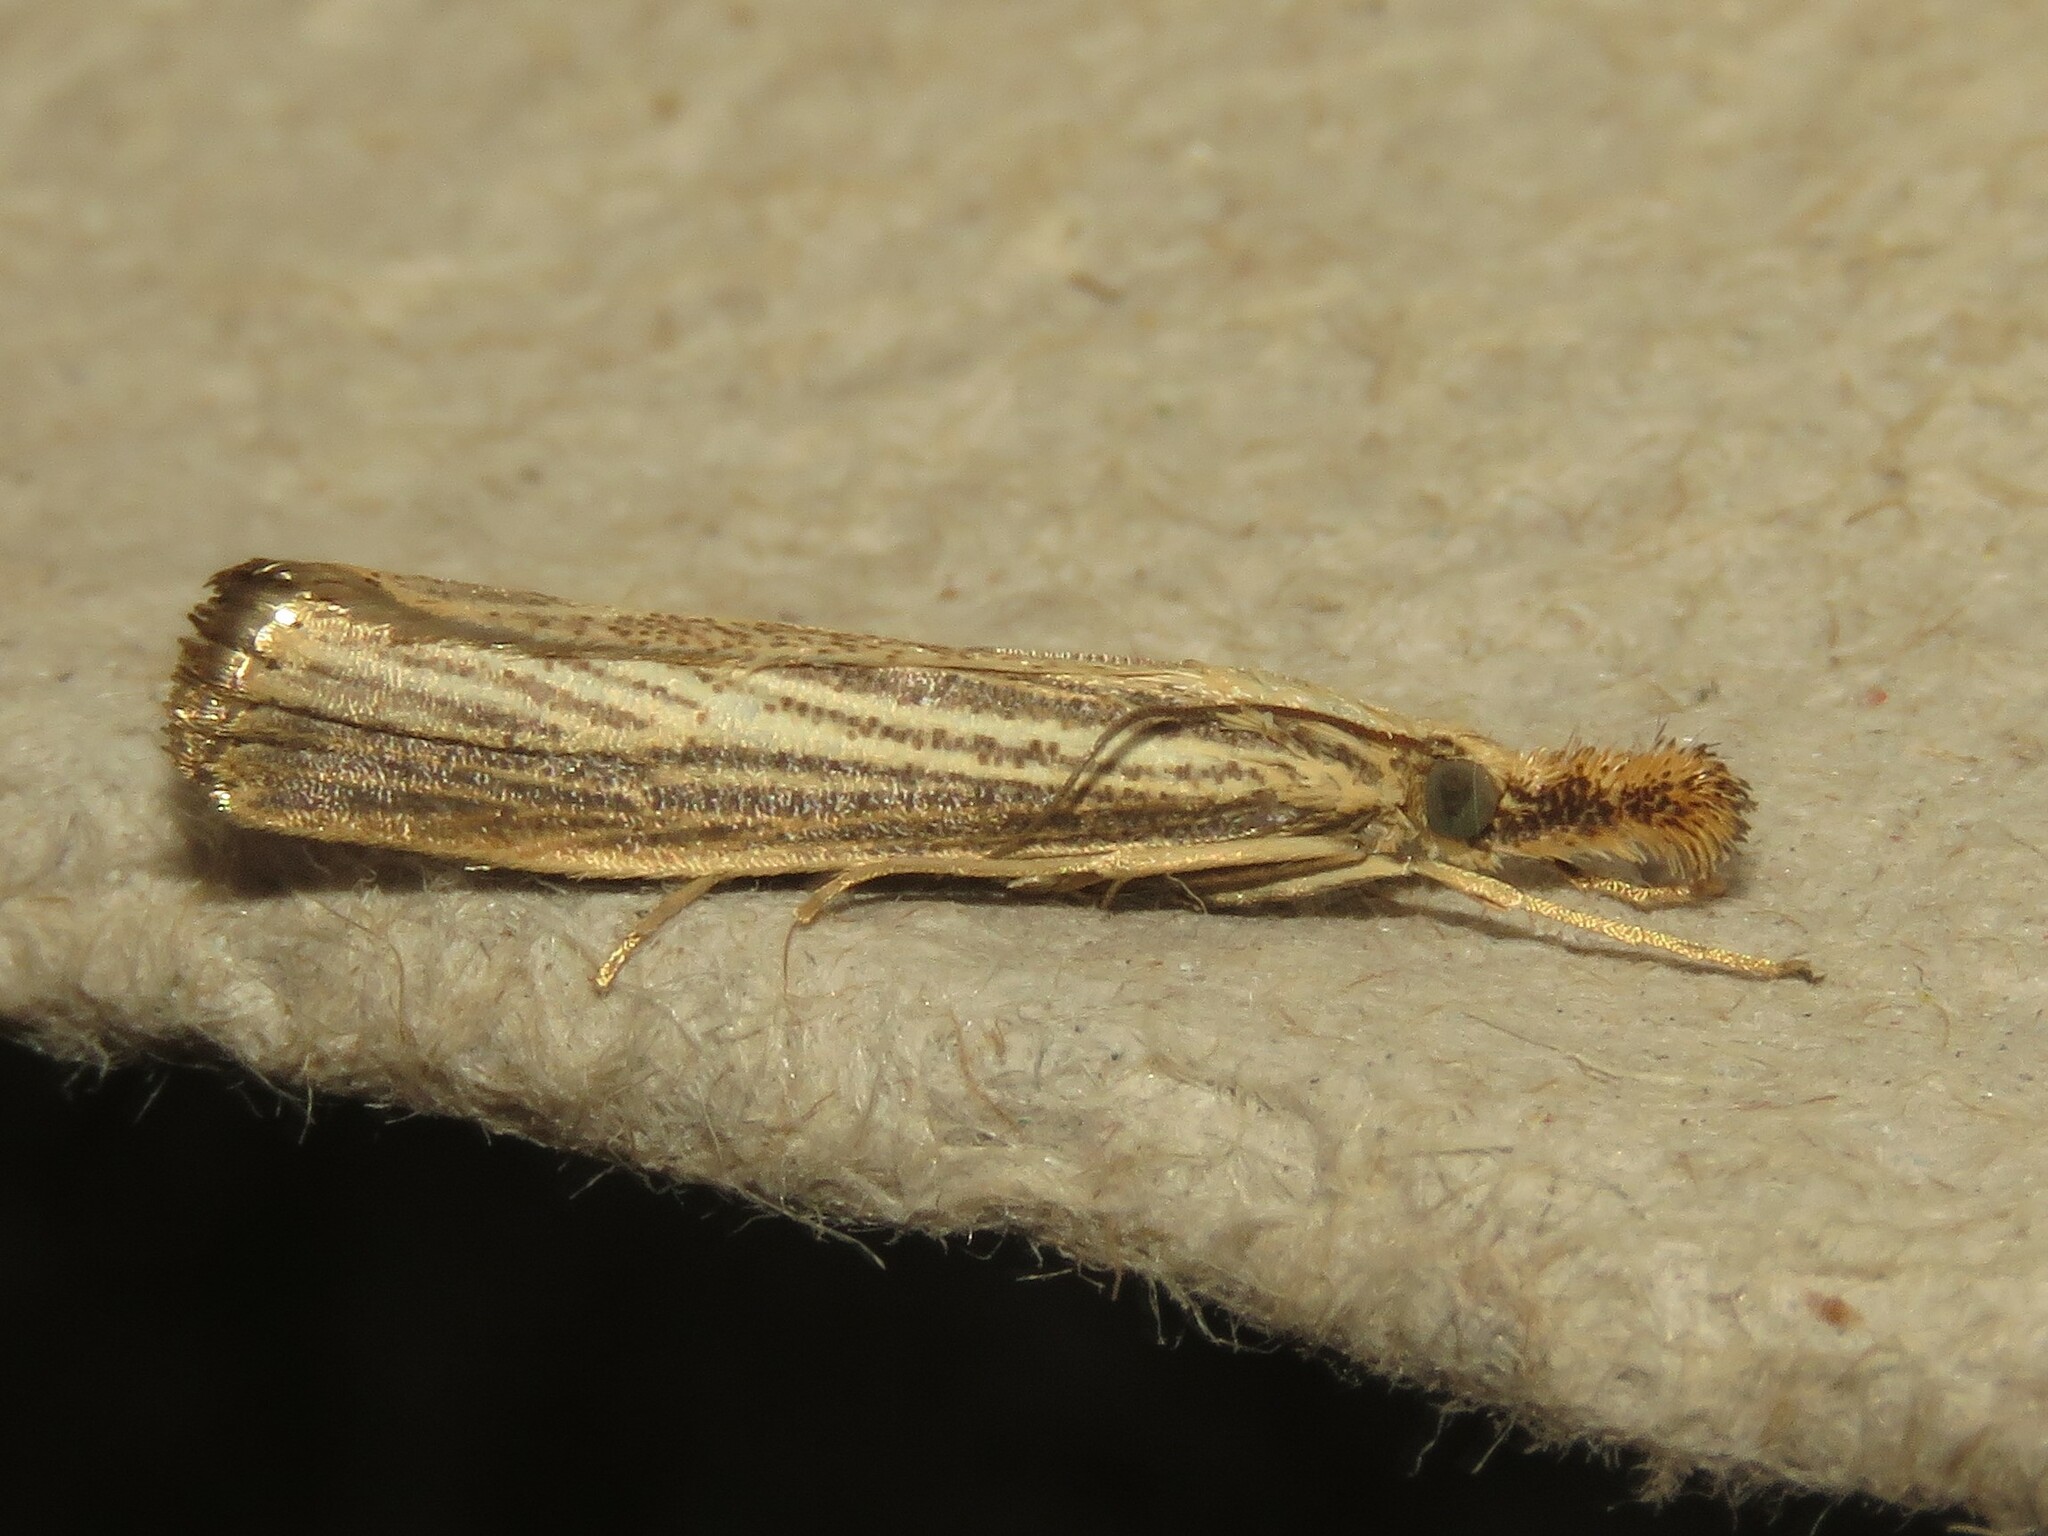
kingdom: Animalia
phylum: Arthropoda
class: Insecta
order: Lepidoptera
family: Crambidae
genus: Agriphila
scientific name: Agriphila vulgivagellus
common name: Vagabond crambus moth
